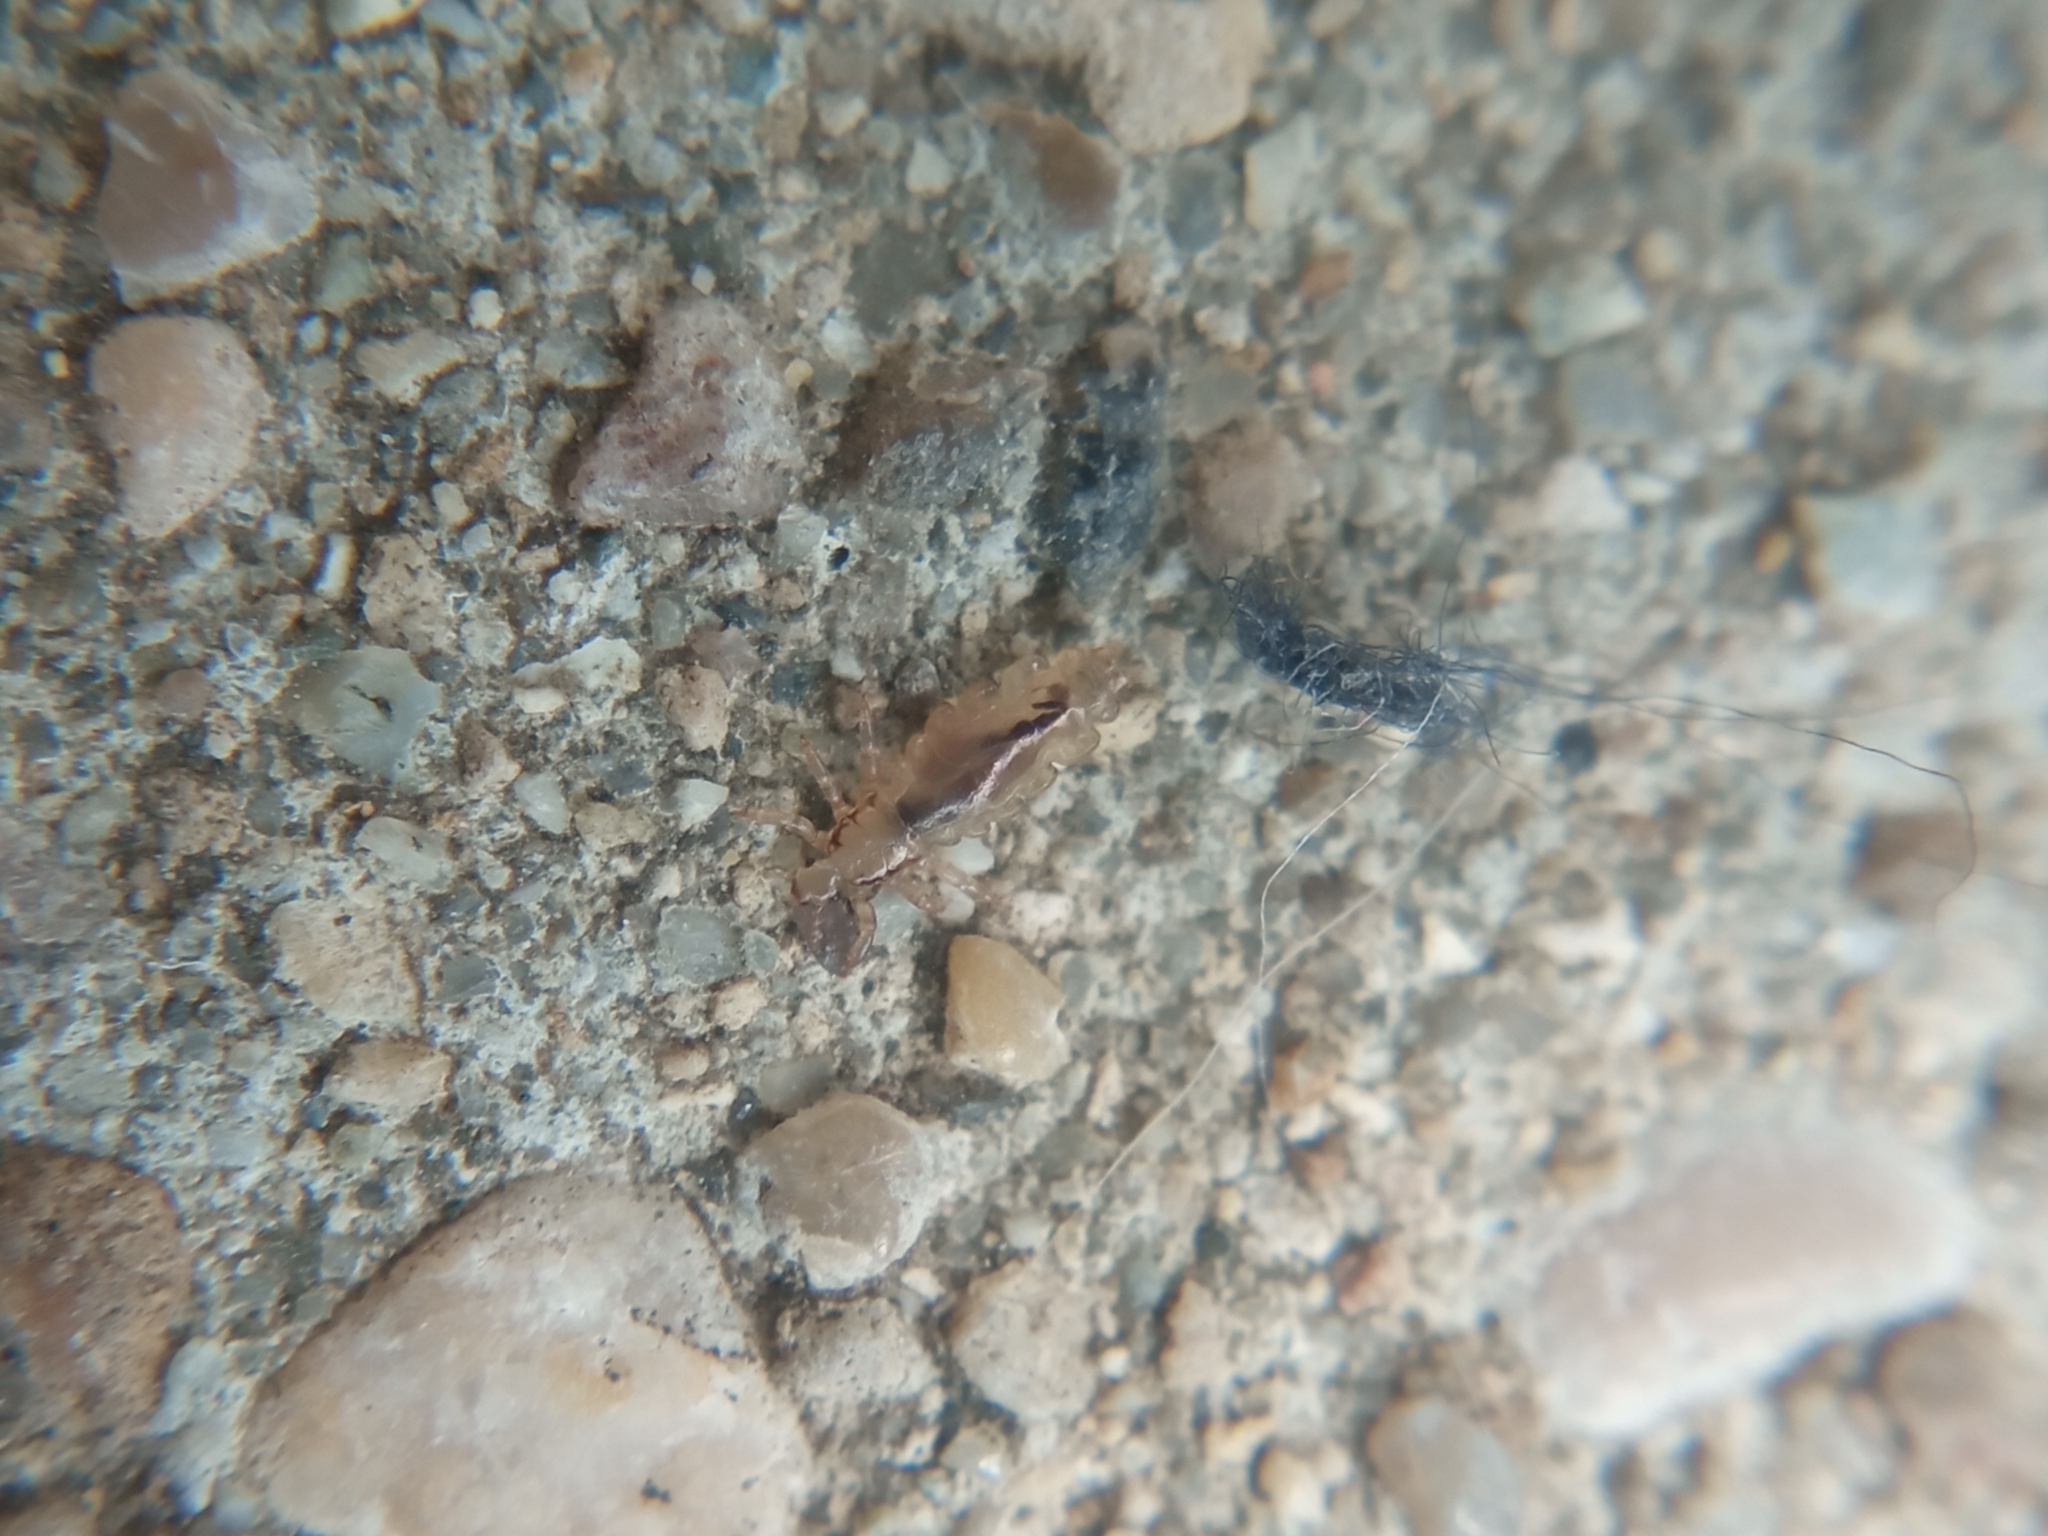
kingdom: Animalia
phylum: Arthropoda
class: Insecta
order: Psocodea
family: Pediculidae
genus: Pediculus
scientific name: Pediculus humanus
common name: Body louse
